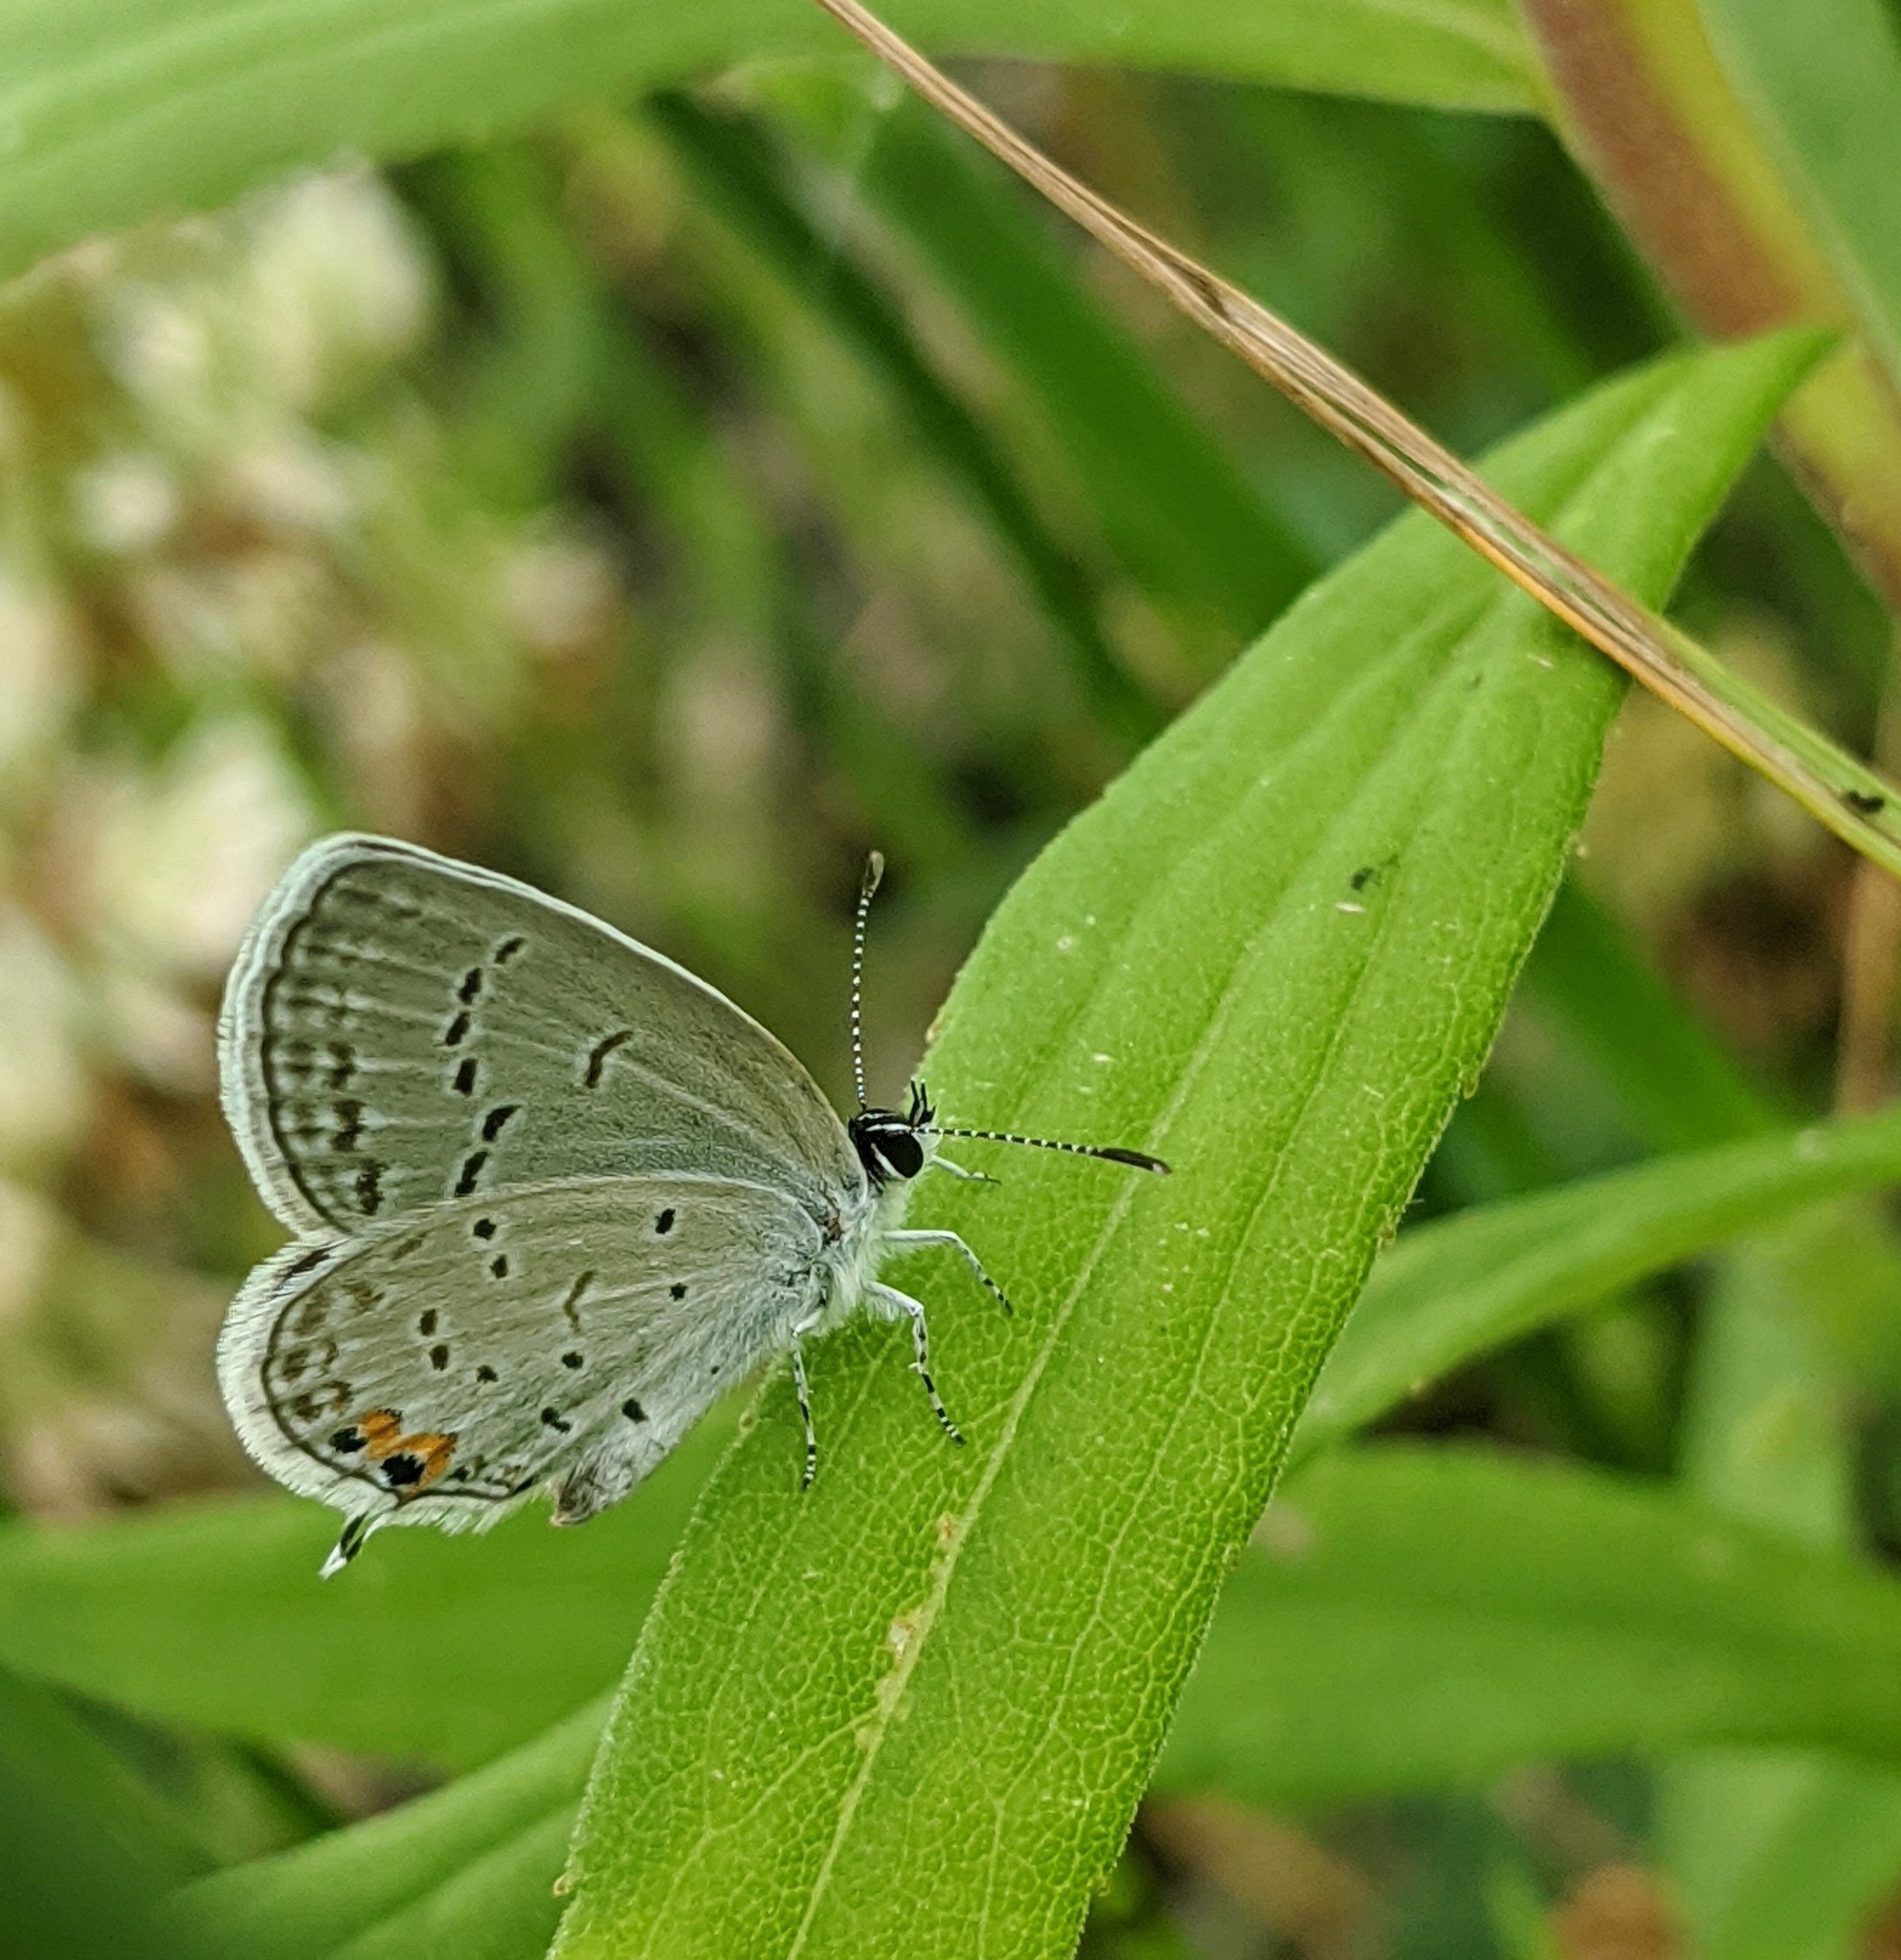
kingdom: Animalia
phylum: Arthropoda
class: Insecta
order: Lepidoptera
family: Lycaenidae
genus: Elkalyce
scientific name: Elkalyce comyntas
